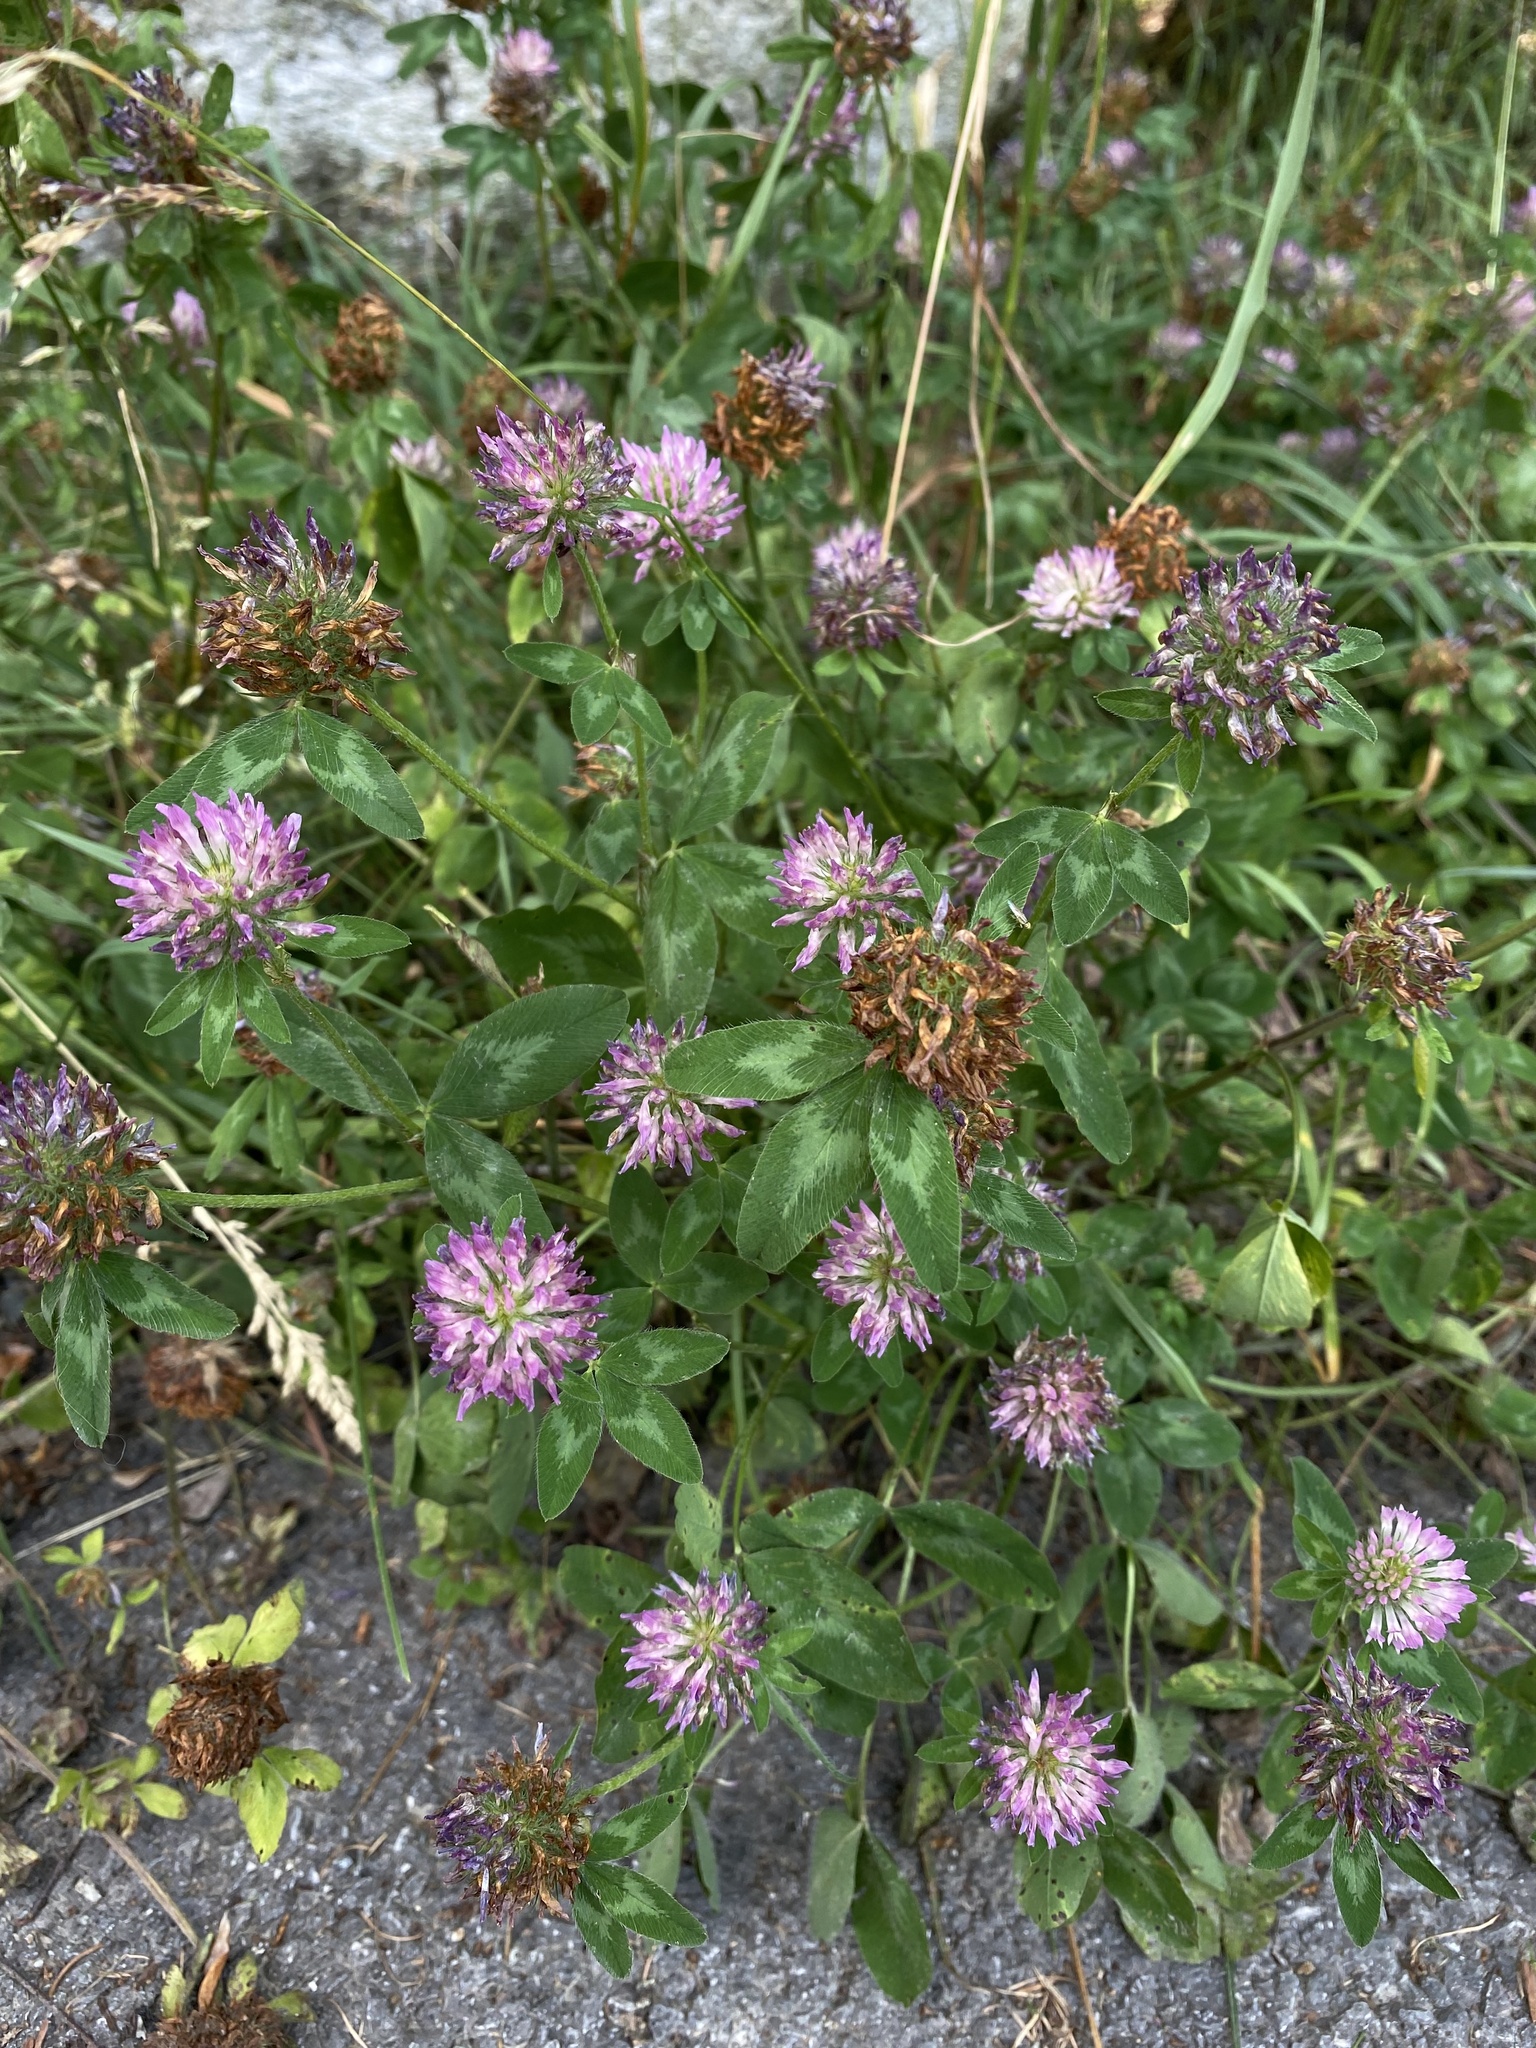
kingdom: Plantae
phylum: Tracheophyta
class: Magnoliopsida
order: Fabales
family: Fabaceae
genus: Trifolium
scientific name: Trifolium pratense
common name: Red clover
